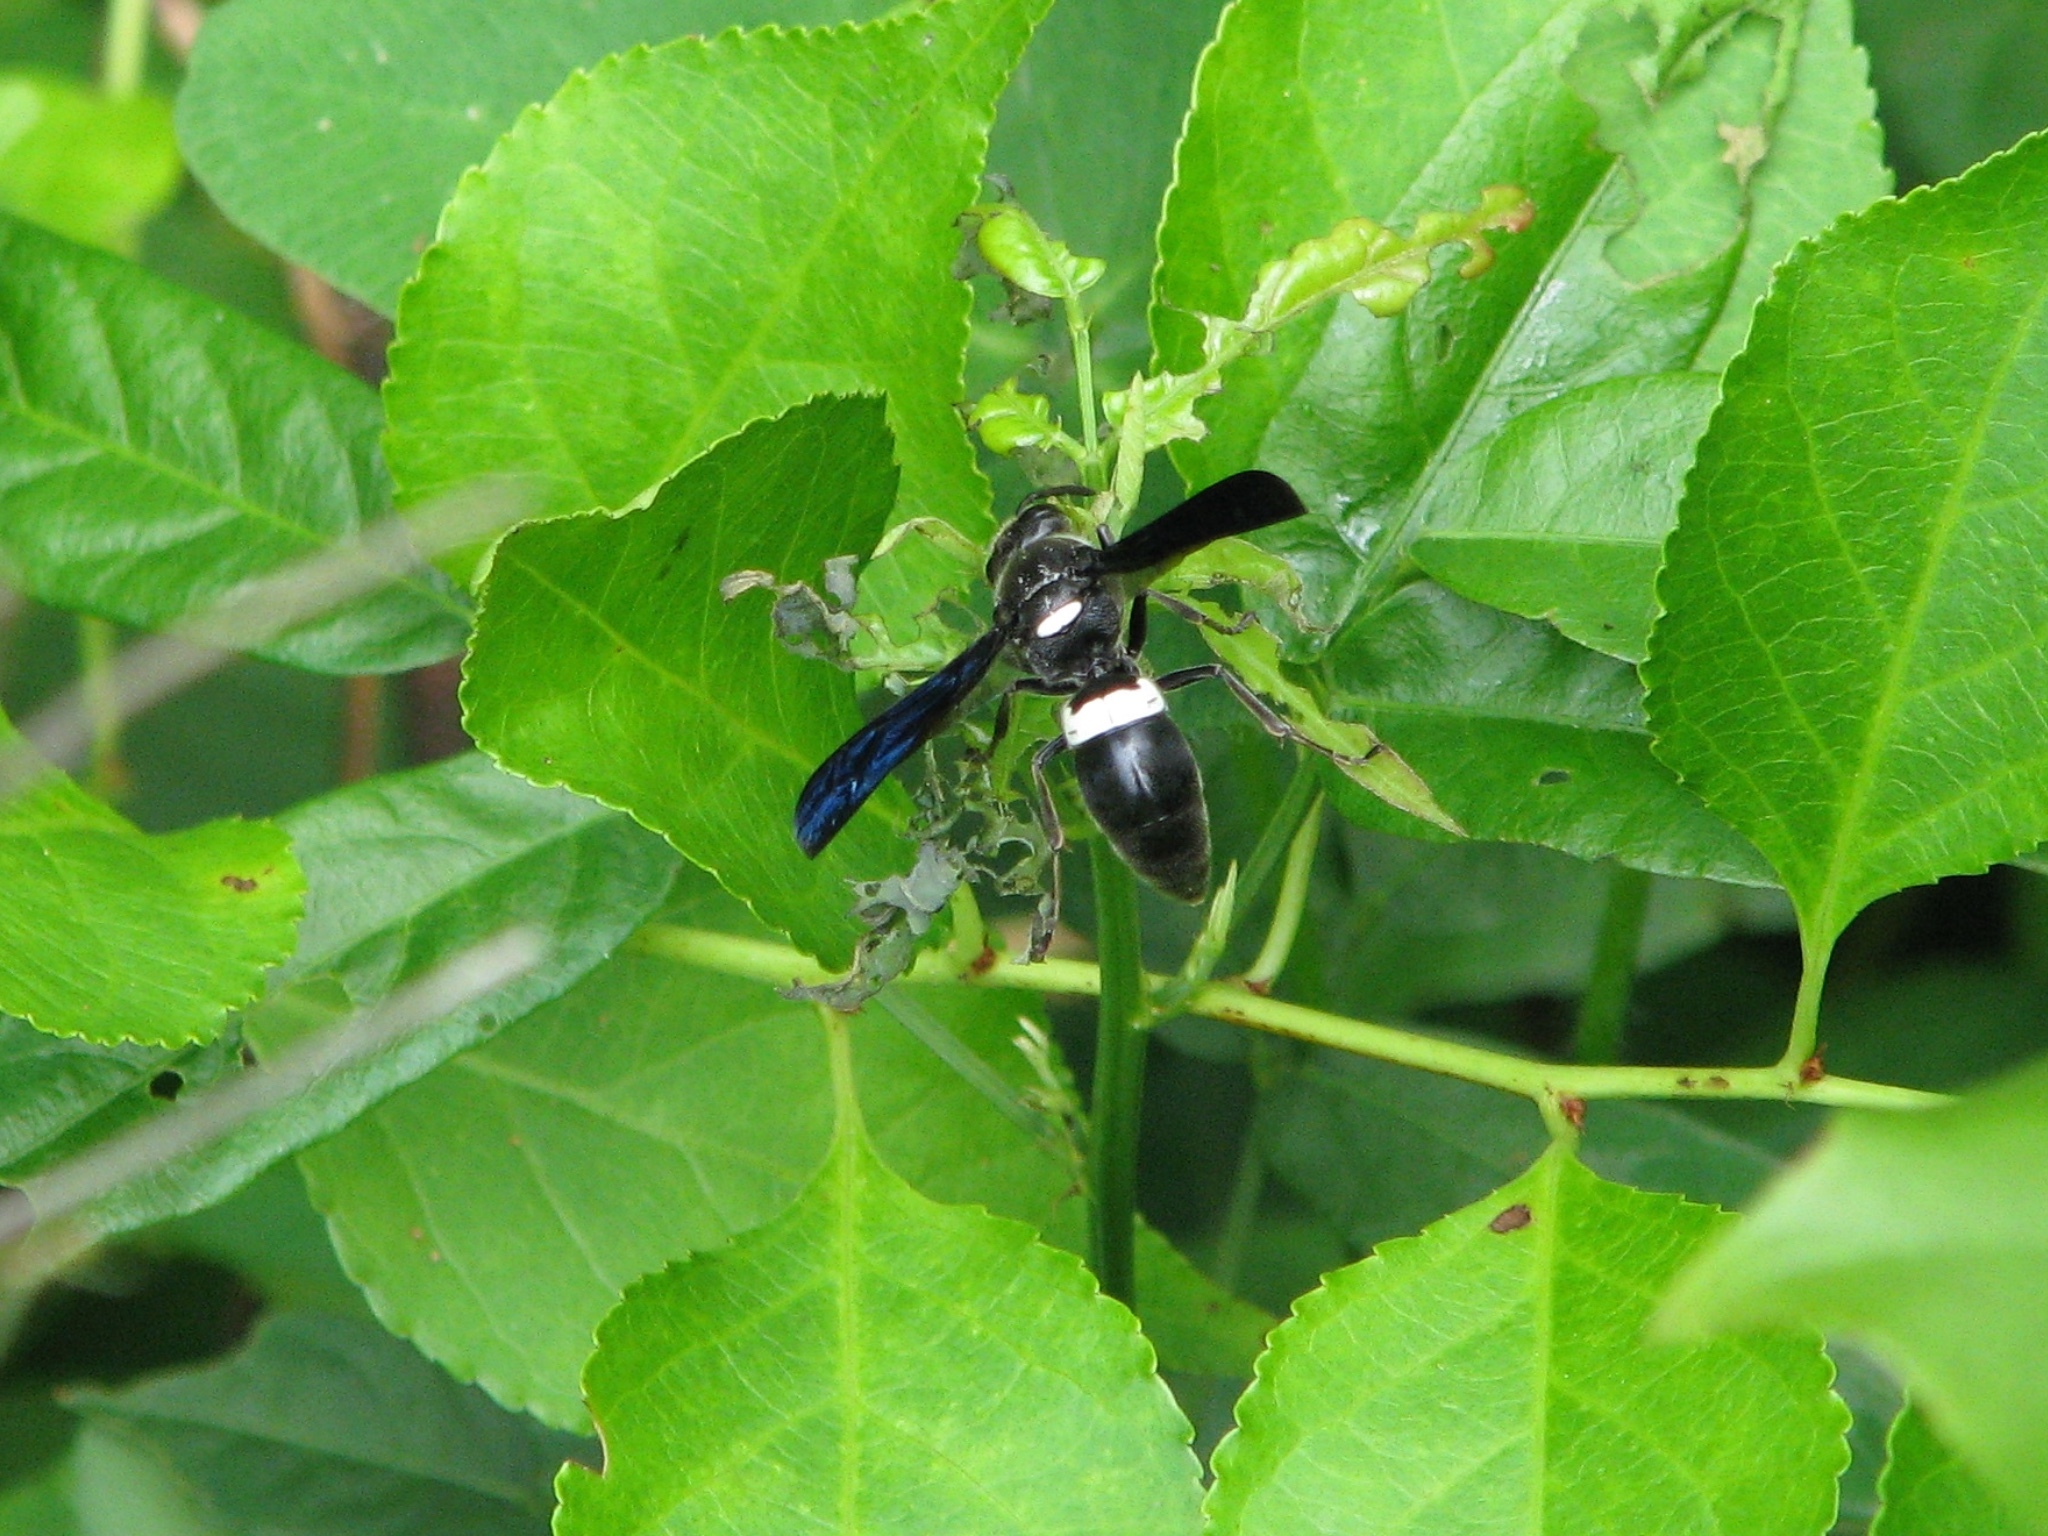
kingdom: Animalia
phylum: Arthropoda
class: Insecta
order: Hymenoptera
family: Eumenidae
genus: Monobia
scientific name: Monobia quadridens
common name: Four-toothed mason wasp
